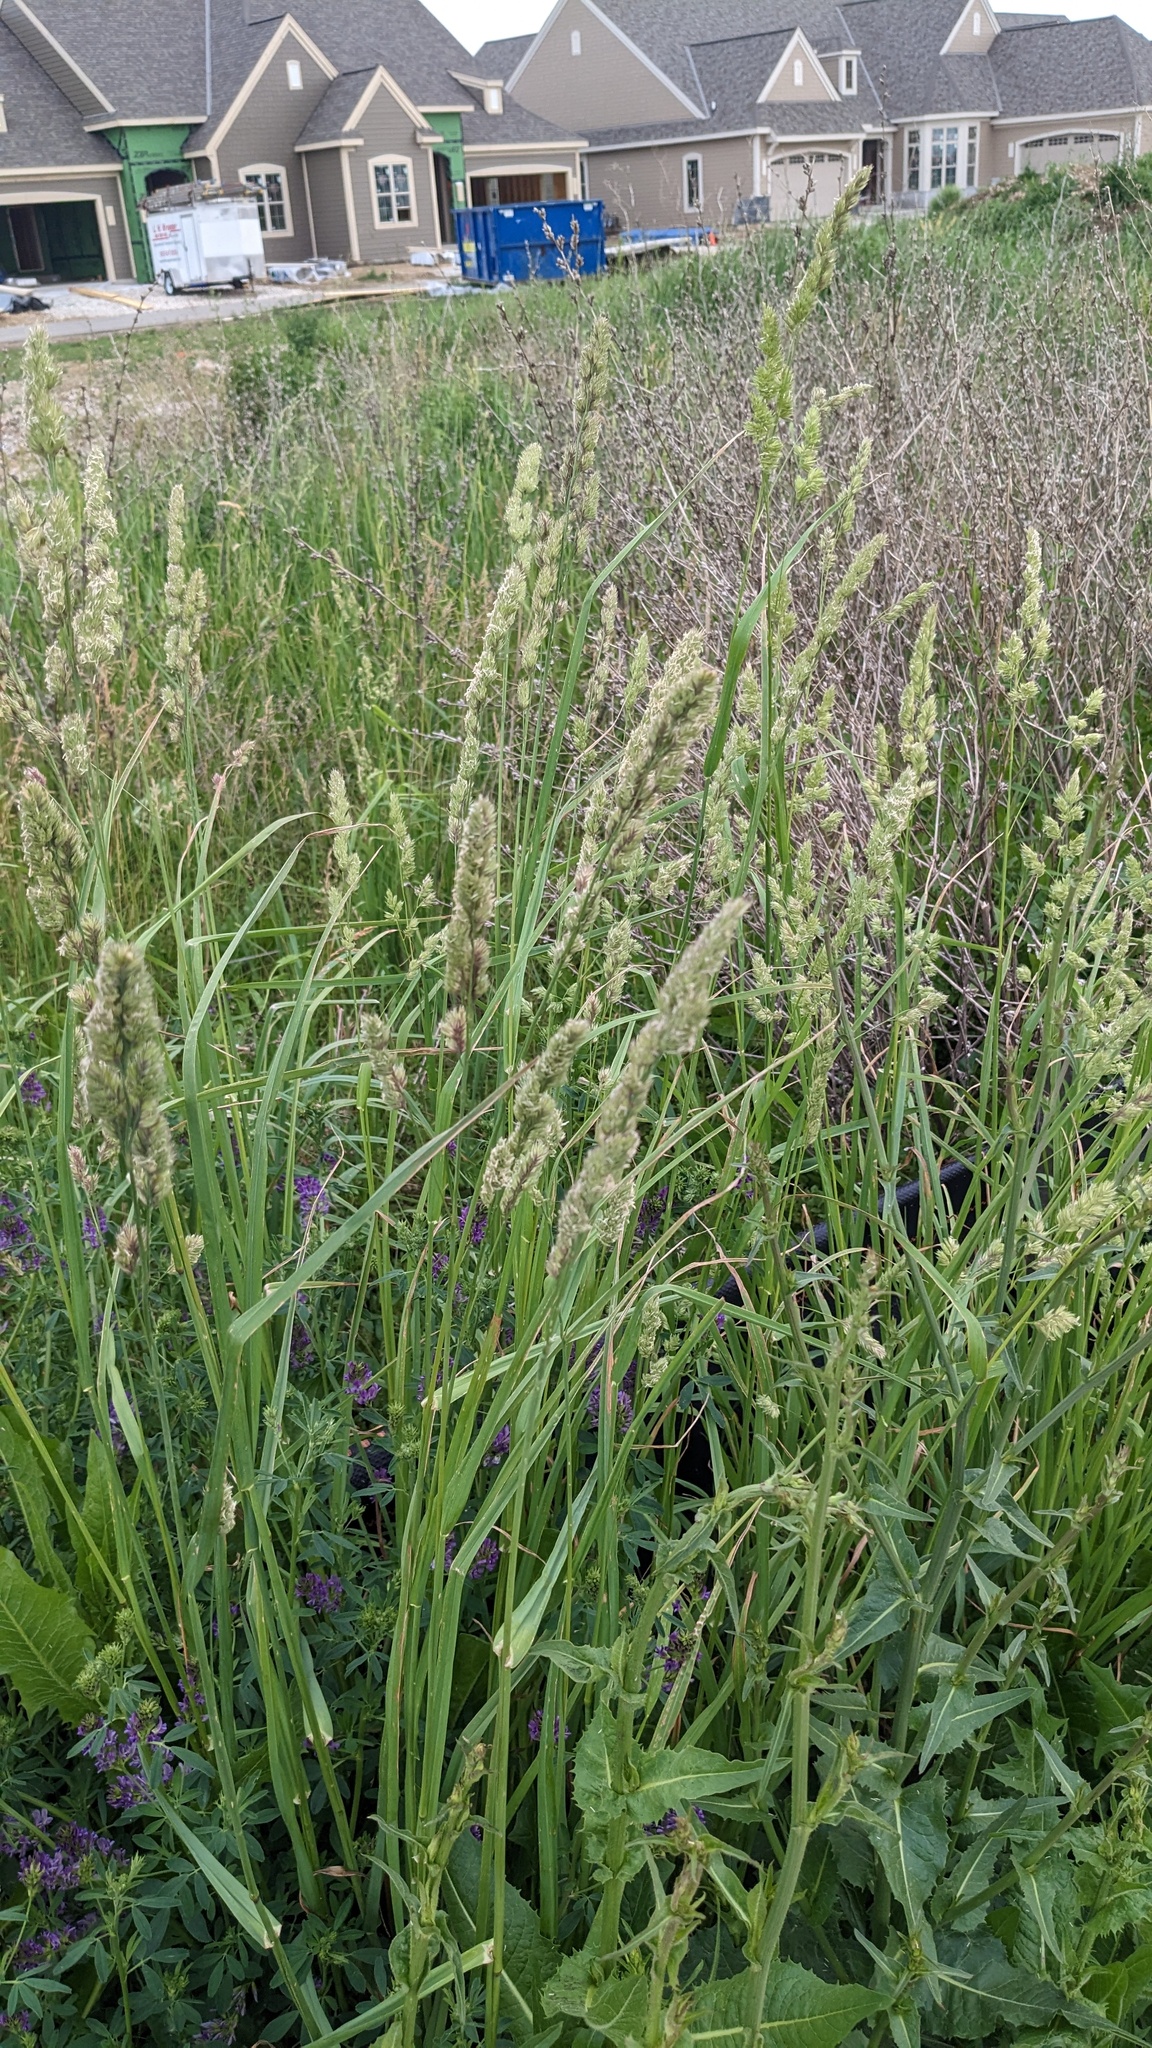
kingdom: Plantae
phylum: Tracheophyta
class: Liliopsida
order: Poales
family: Poaceae
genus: Dactylis
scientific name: Dactylis glomerata
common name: Orchardgrass
